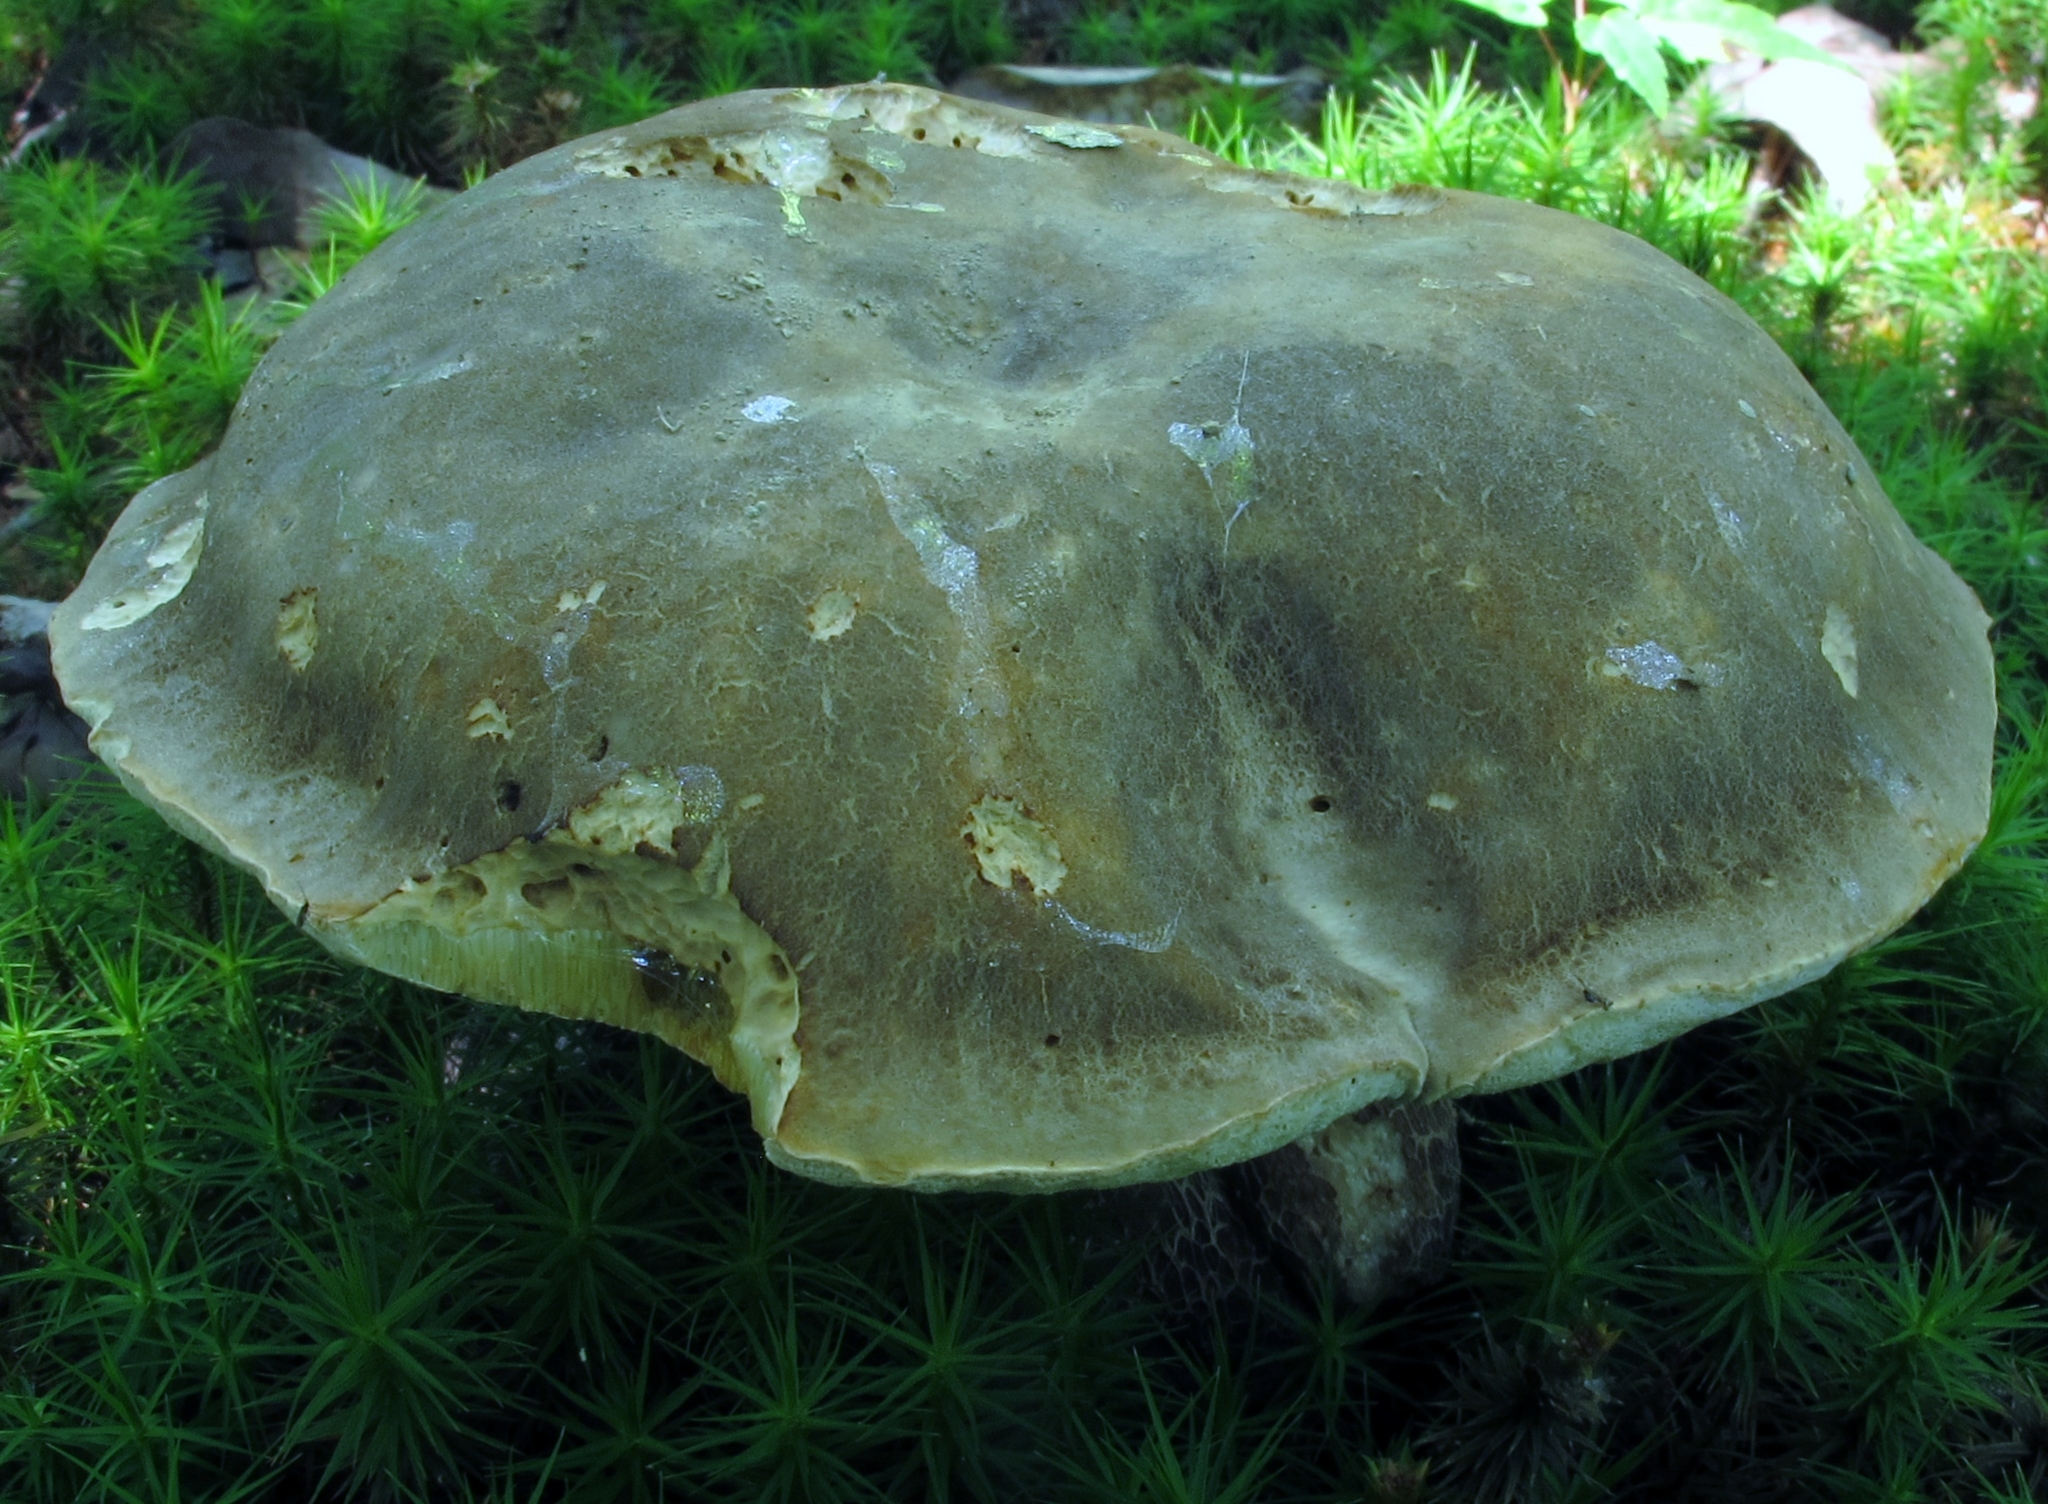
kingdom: Fungi
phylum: Basidiomycota
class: Agaricomycetes
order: Boletales
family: Boletaceae
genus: Boletus
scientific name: Boletus variipes
